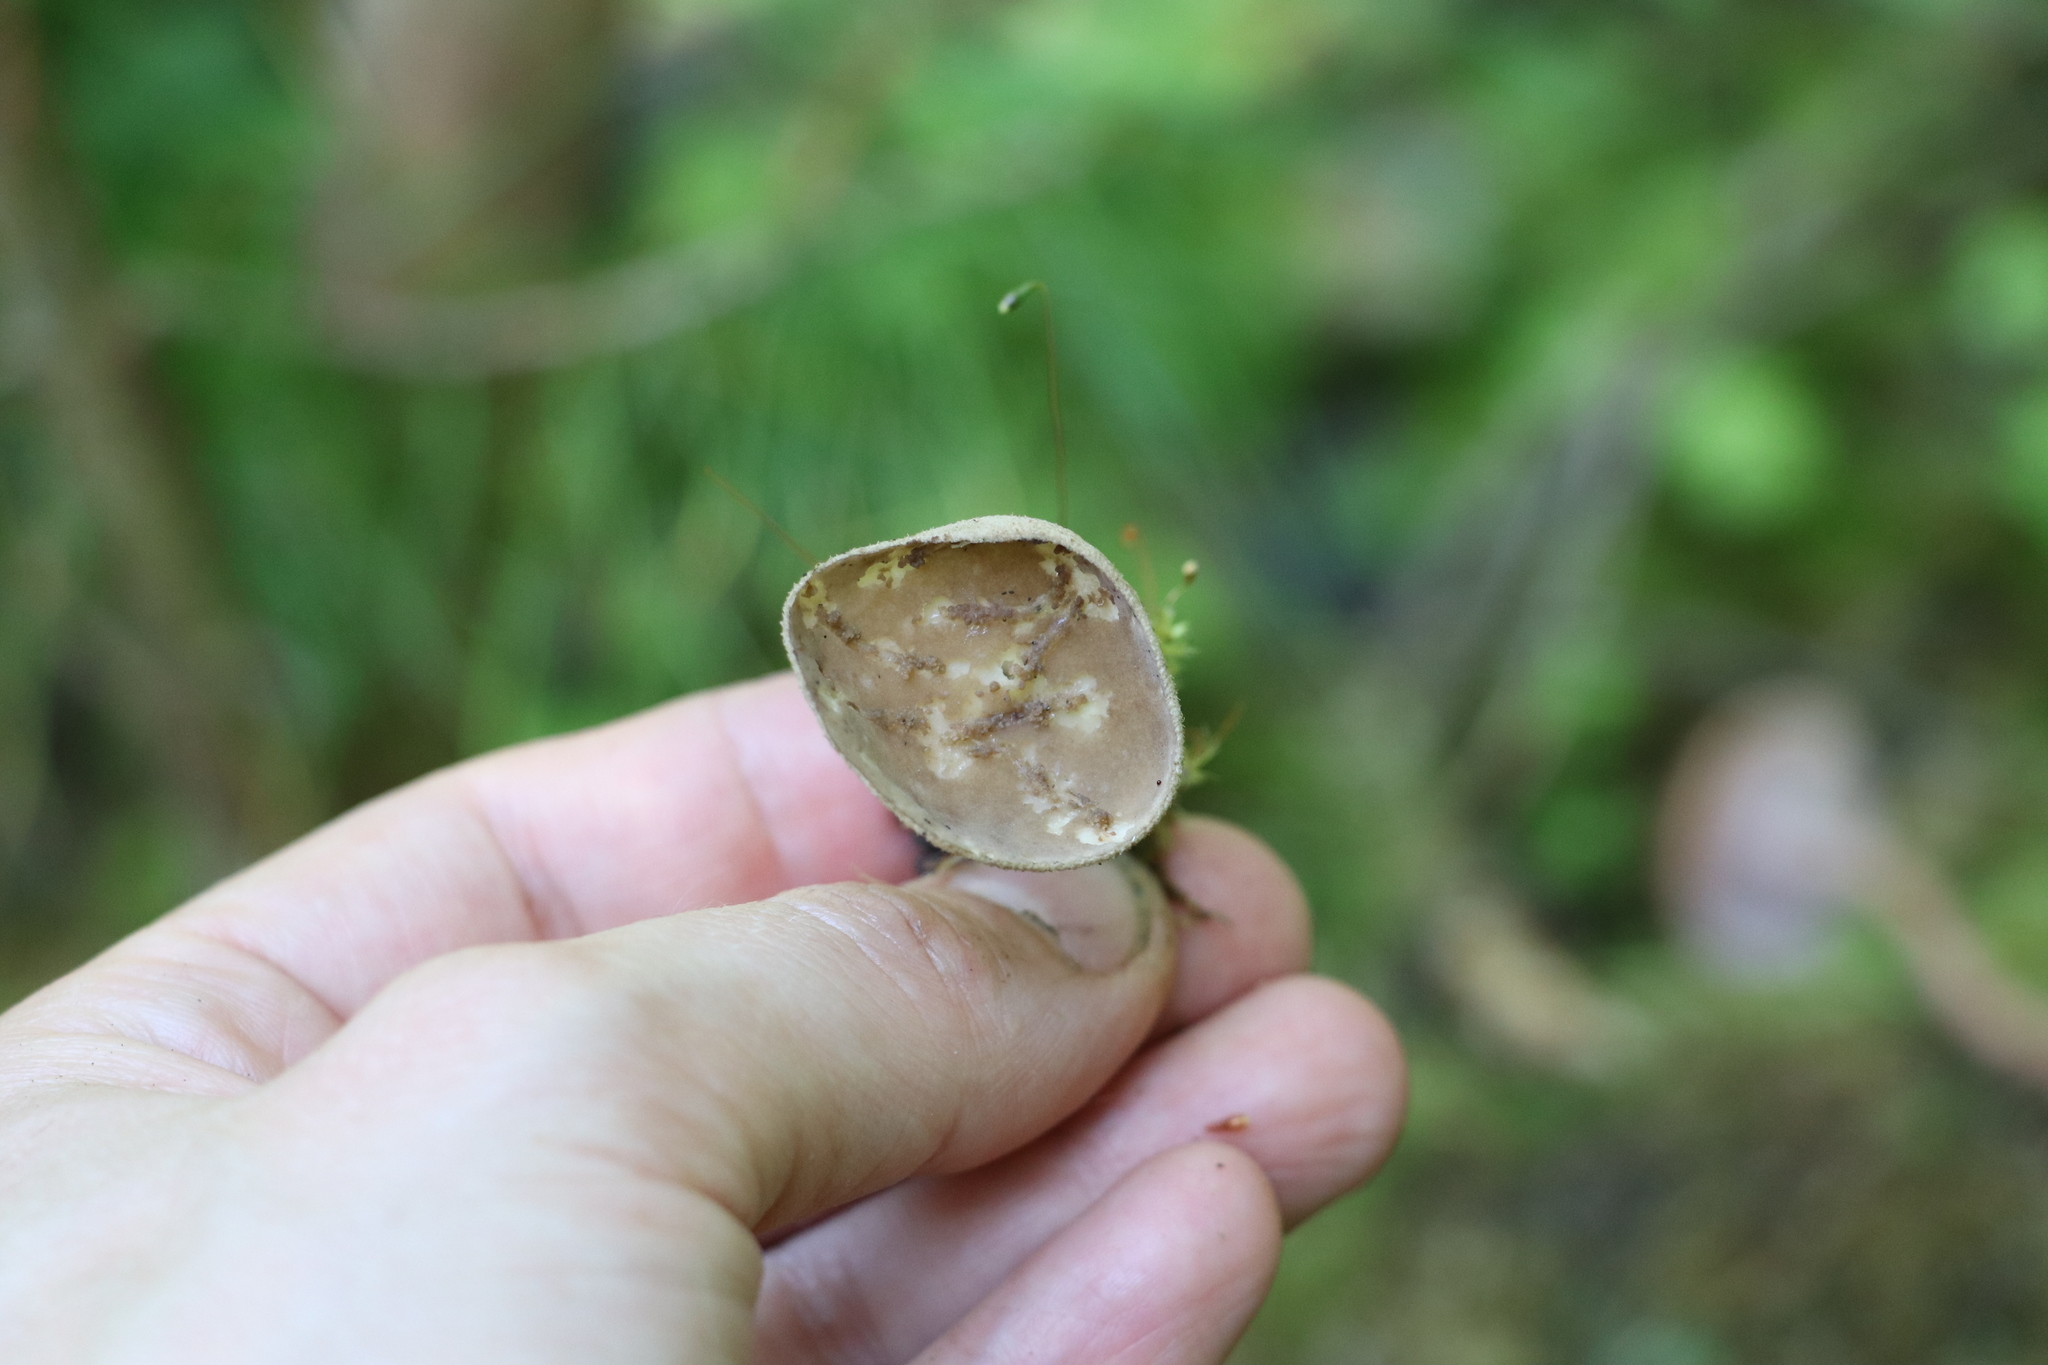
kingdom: Fungi
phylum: Ascomycota
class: Pezizomycetes
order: Pezizales
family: Helvellaceae
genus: Helvella
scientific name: Helvella macropus
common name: Felt saddle
